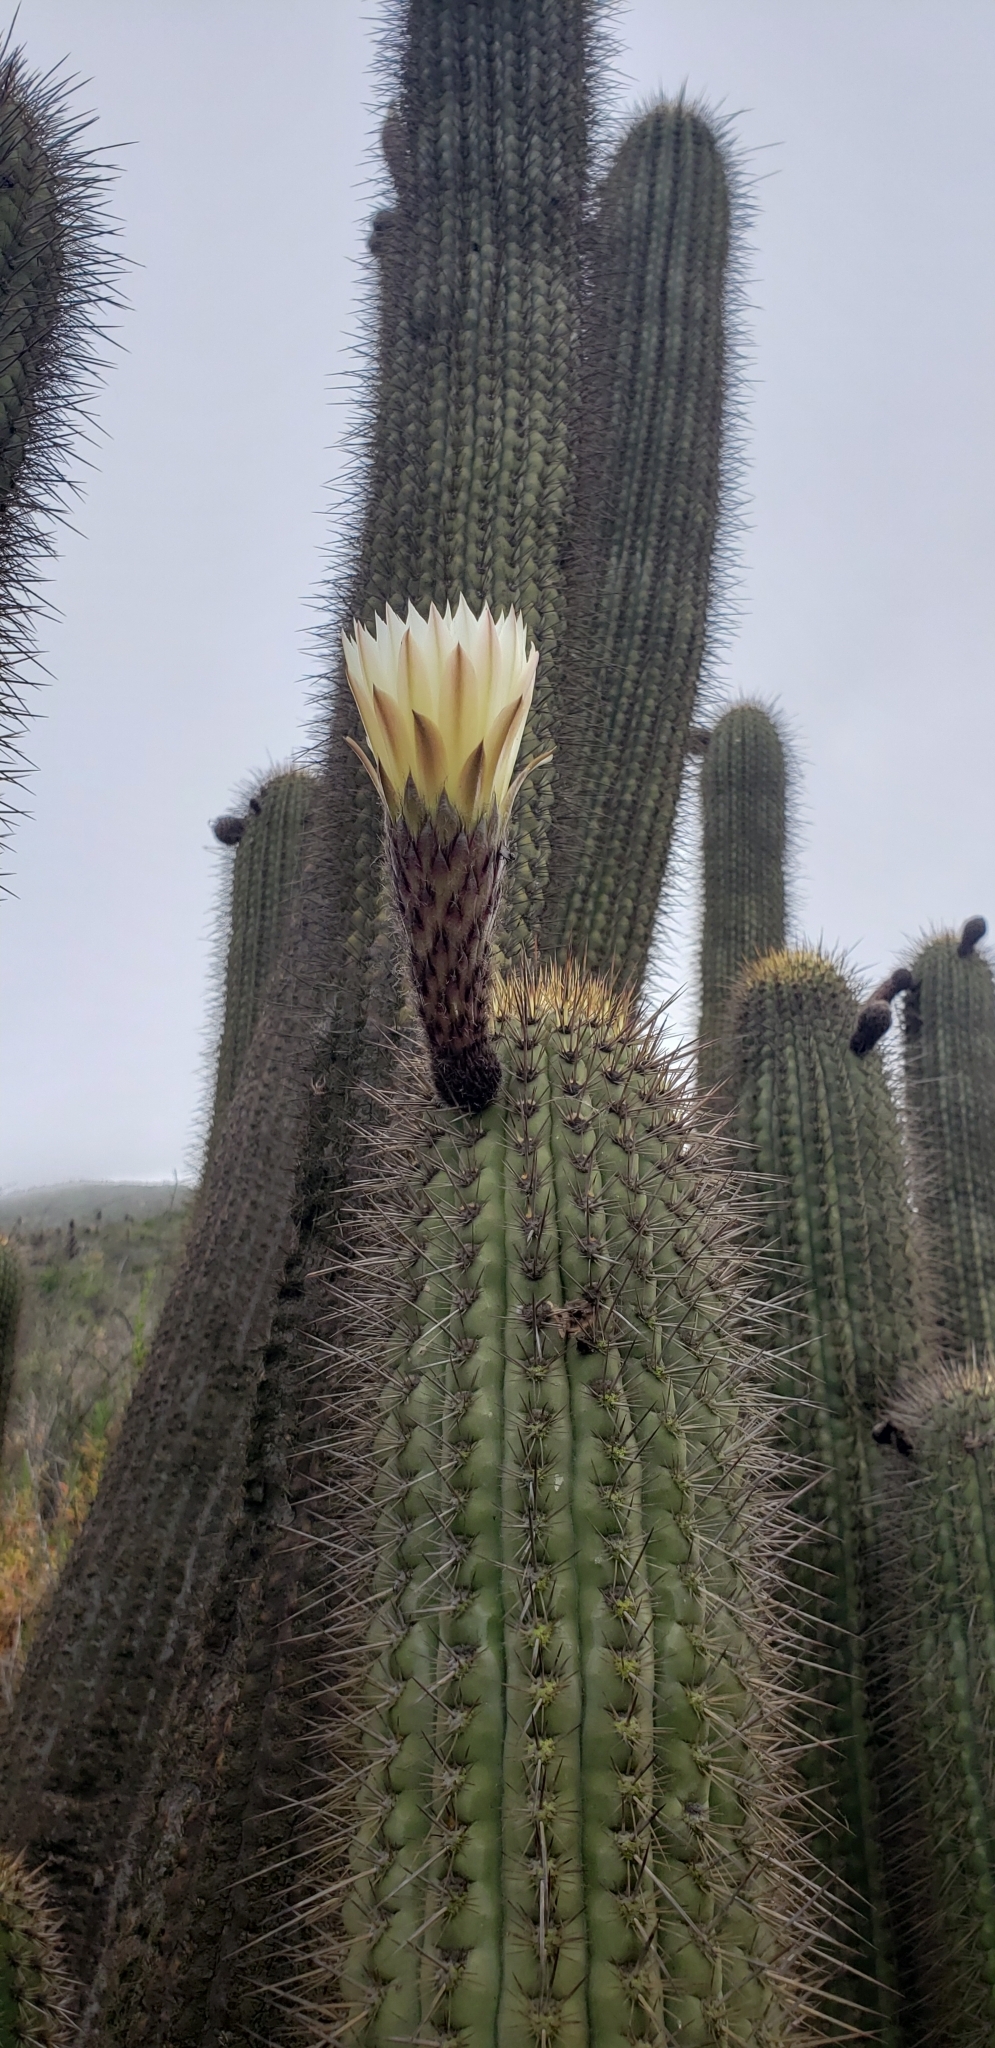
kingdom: Plantae
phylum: Tracheophyta
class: Magnoliopsida
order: Caryophyllales
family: Cactaceae
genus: Leucostele
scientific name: Leucostele chiloensis
